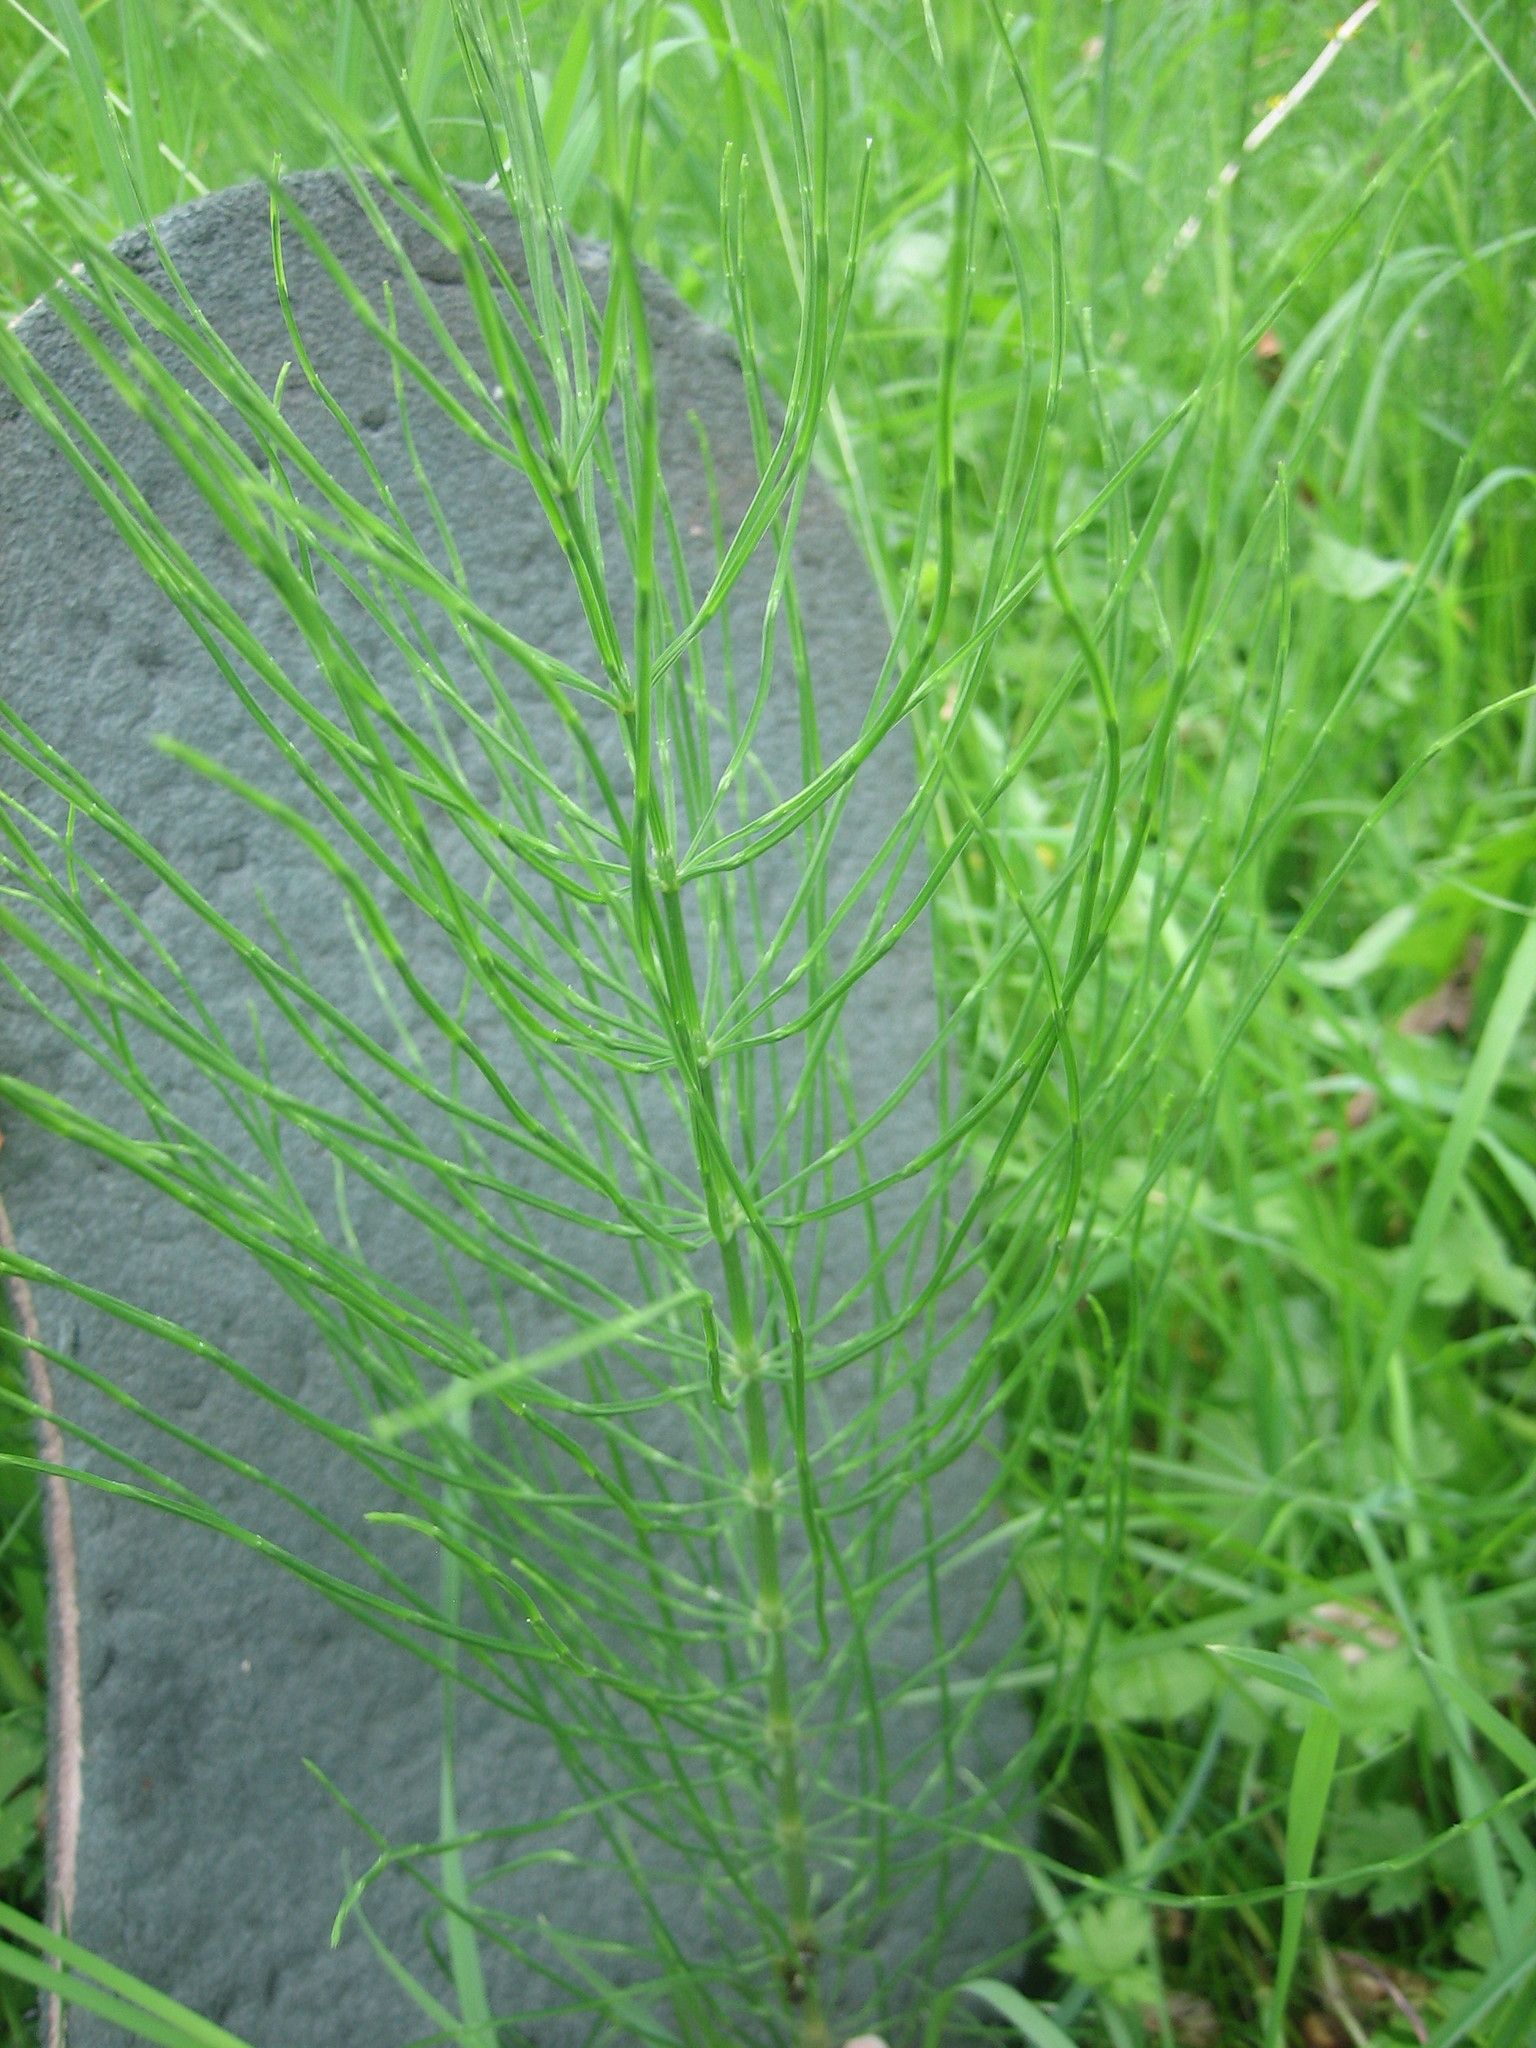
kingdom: Plantae
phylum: Tracheophyta
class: Polypodiopsida
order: Equisetales
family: Equisetaceae
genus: Equisetum
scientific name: Equisetum arvense
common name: Field horsetail
